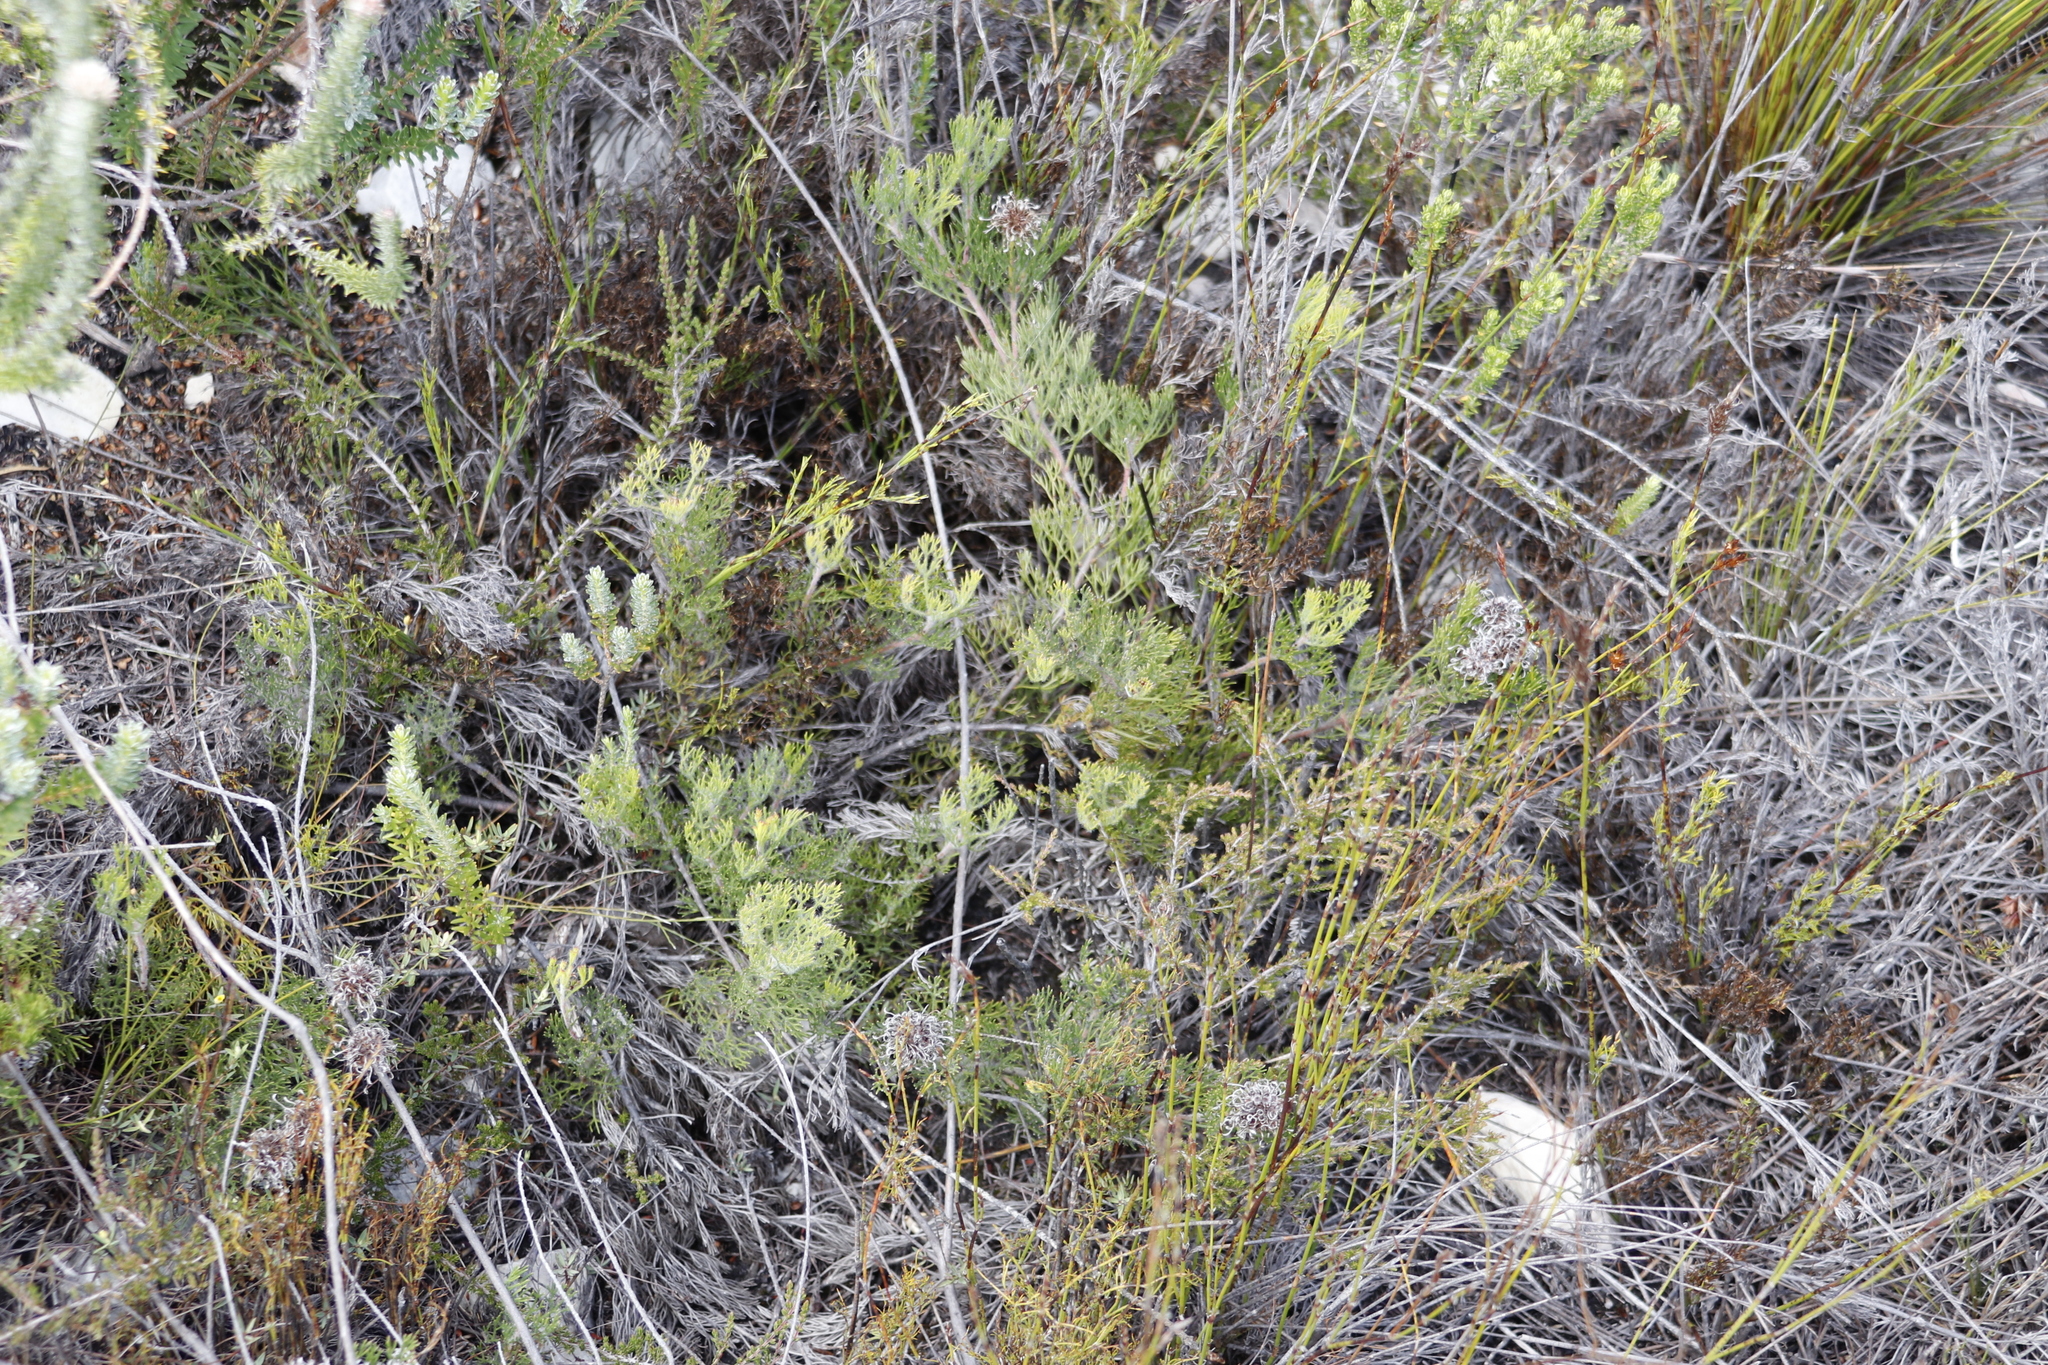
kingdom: Plantae
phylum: Tracheophyta
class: Magnoliopsida
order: Proteales
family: Proteaceae
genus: Serruria
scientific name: Serruria
